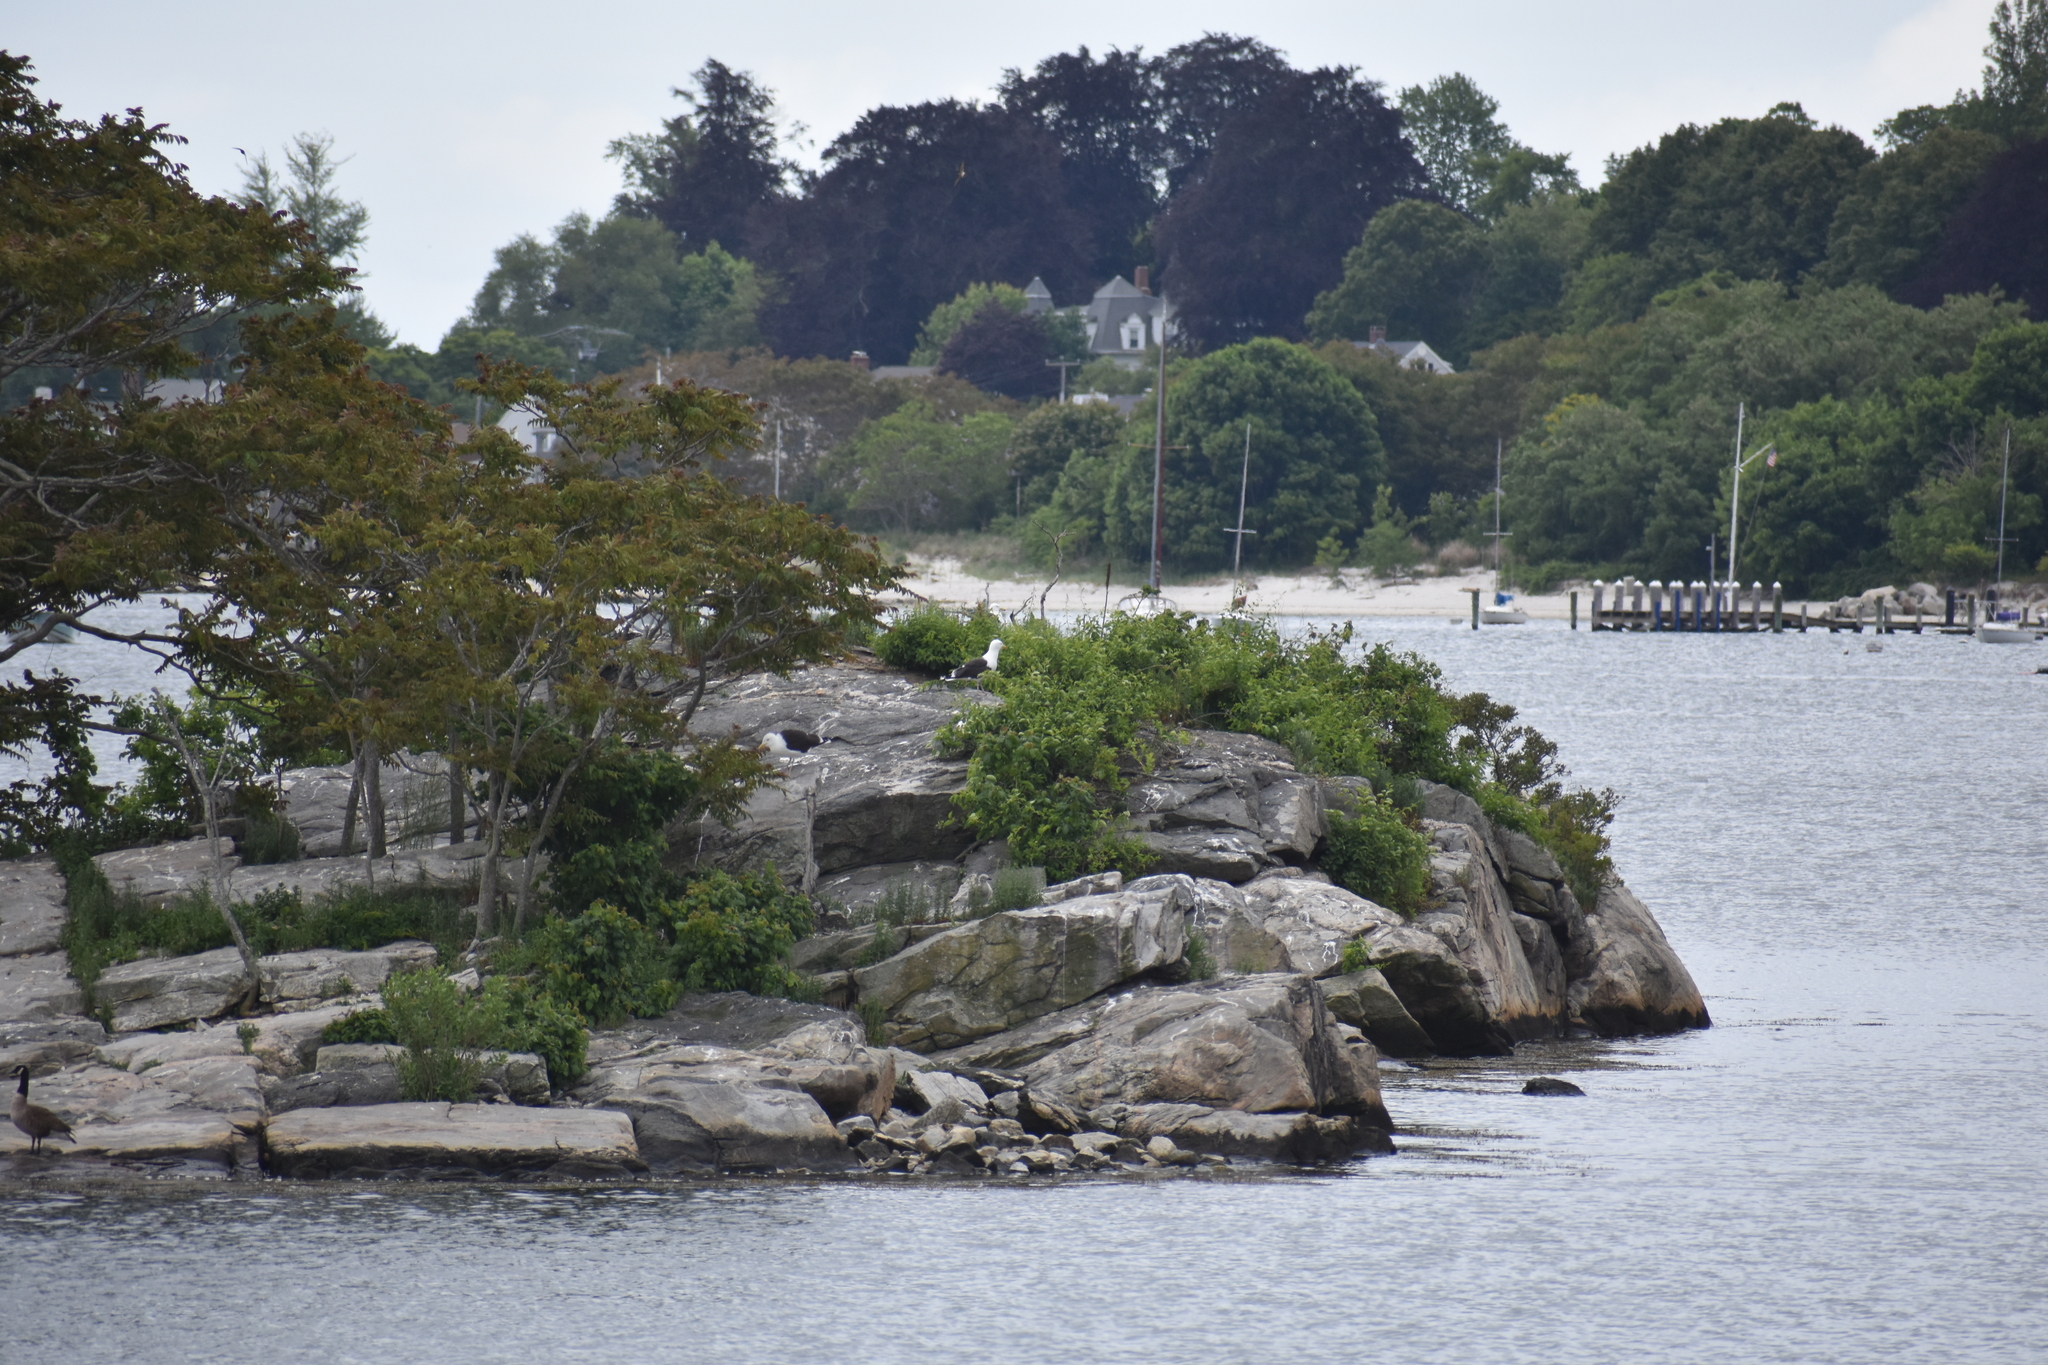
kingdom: Animalia
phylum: Chordata
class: Aves
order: Charadriiformes
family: Laridae
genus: Larus
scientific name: Larus marinus
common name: Great black-backed gull
